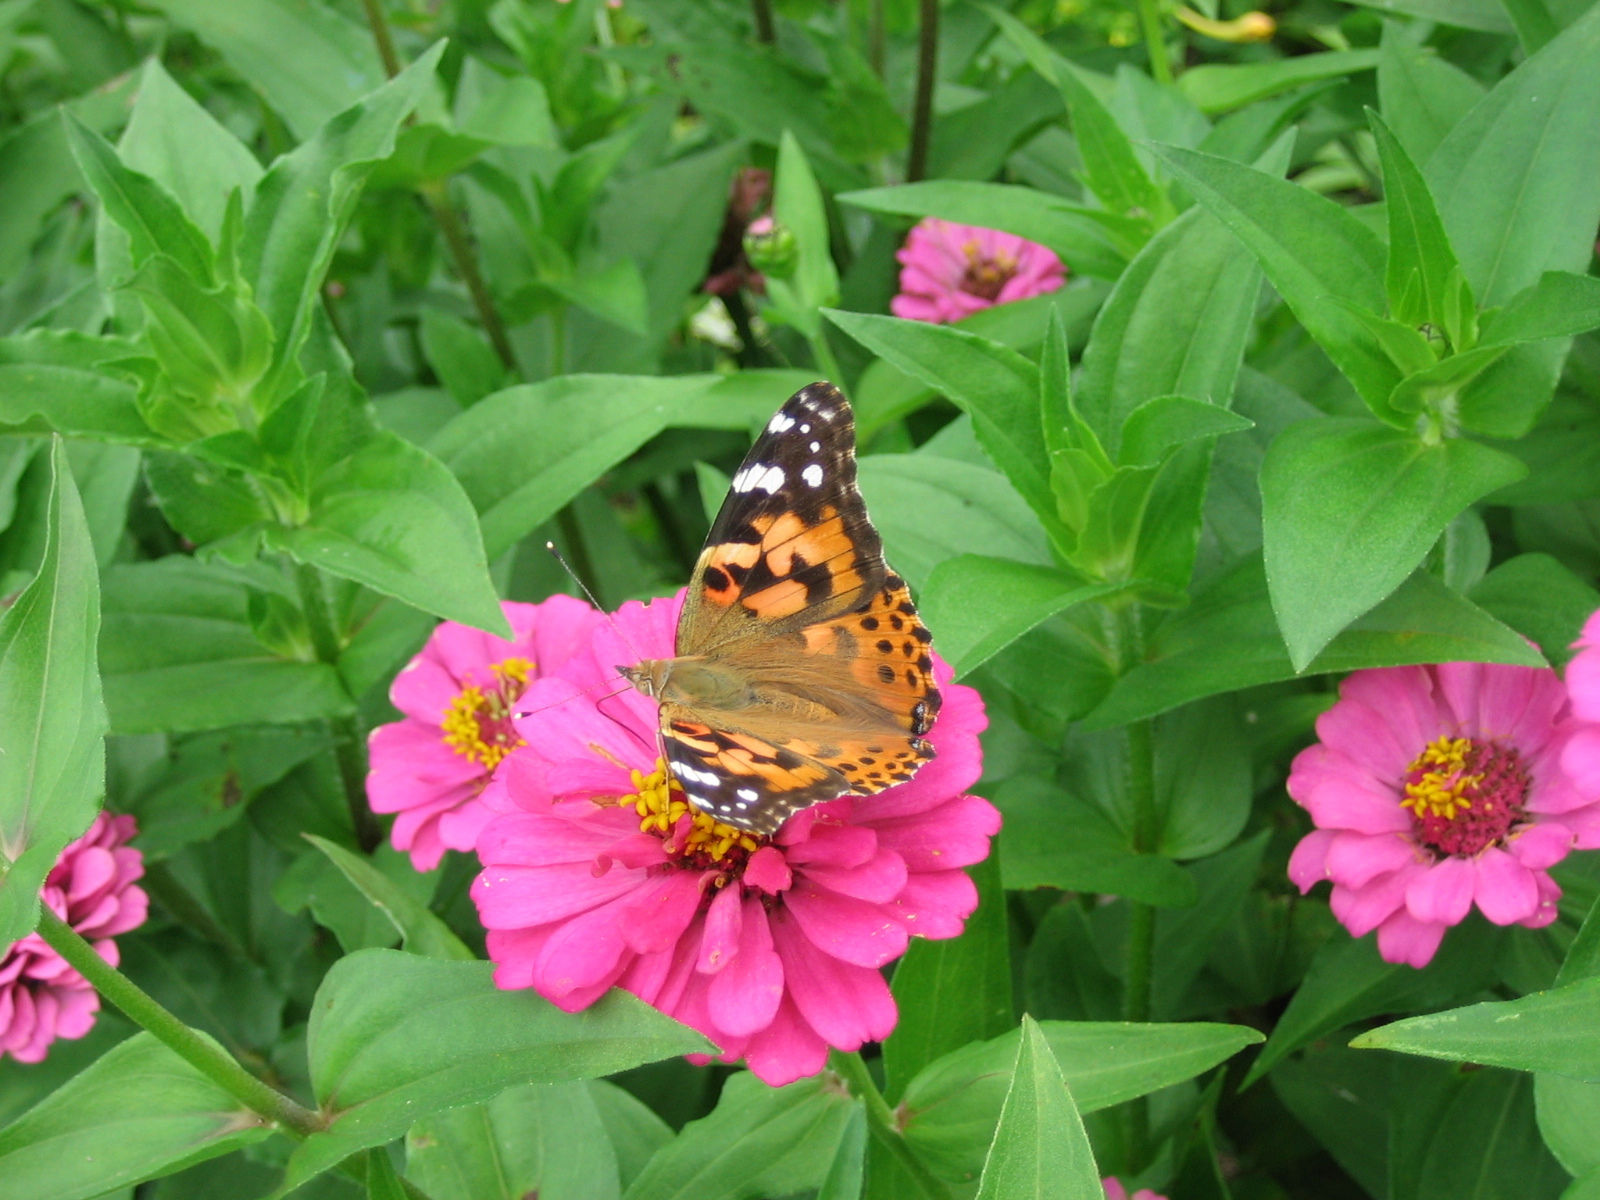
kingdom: Animalia
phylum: Arthropoda
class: Insecta
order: Lepidoptera
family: Nymphalidae
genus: Vanessa
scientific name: Vanessa cardui
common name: Painted lady
